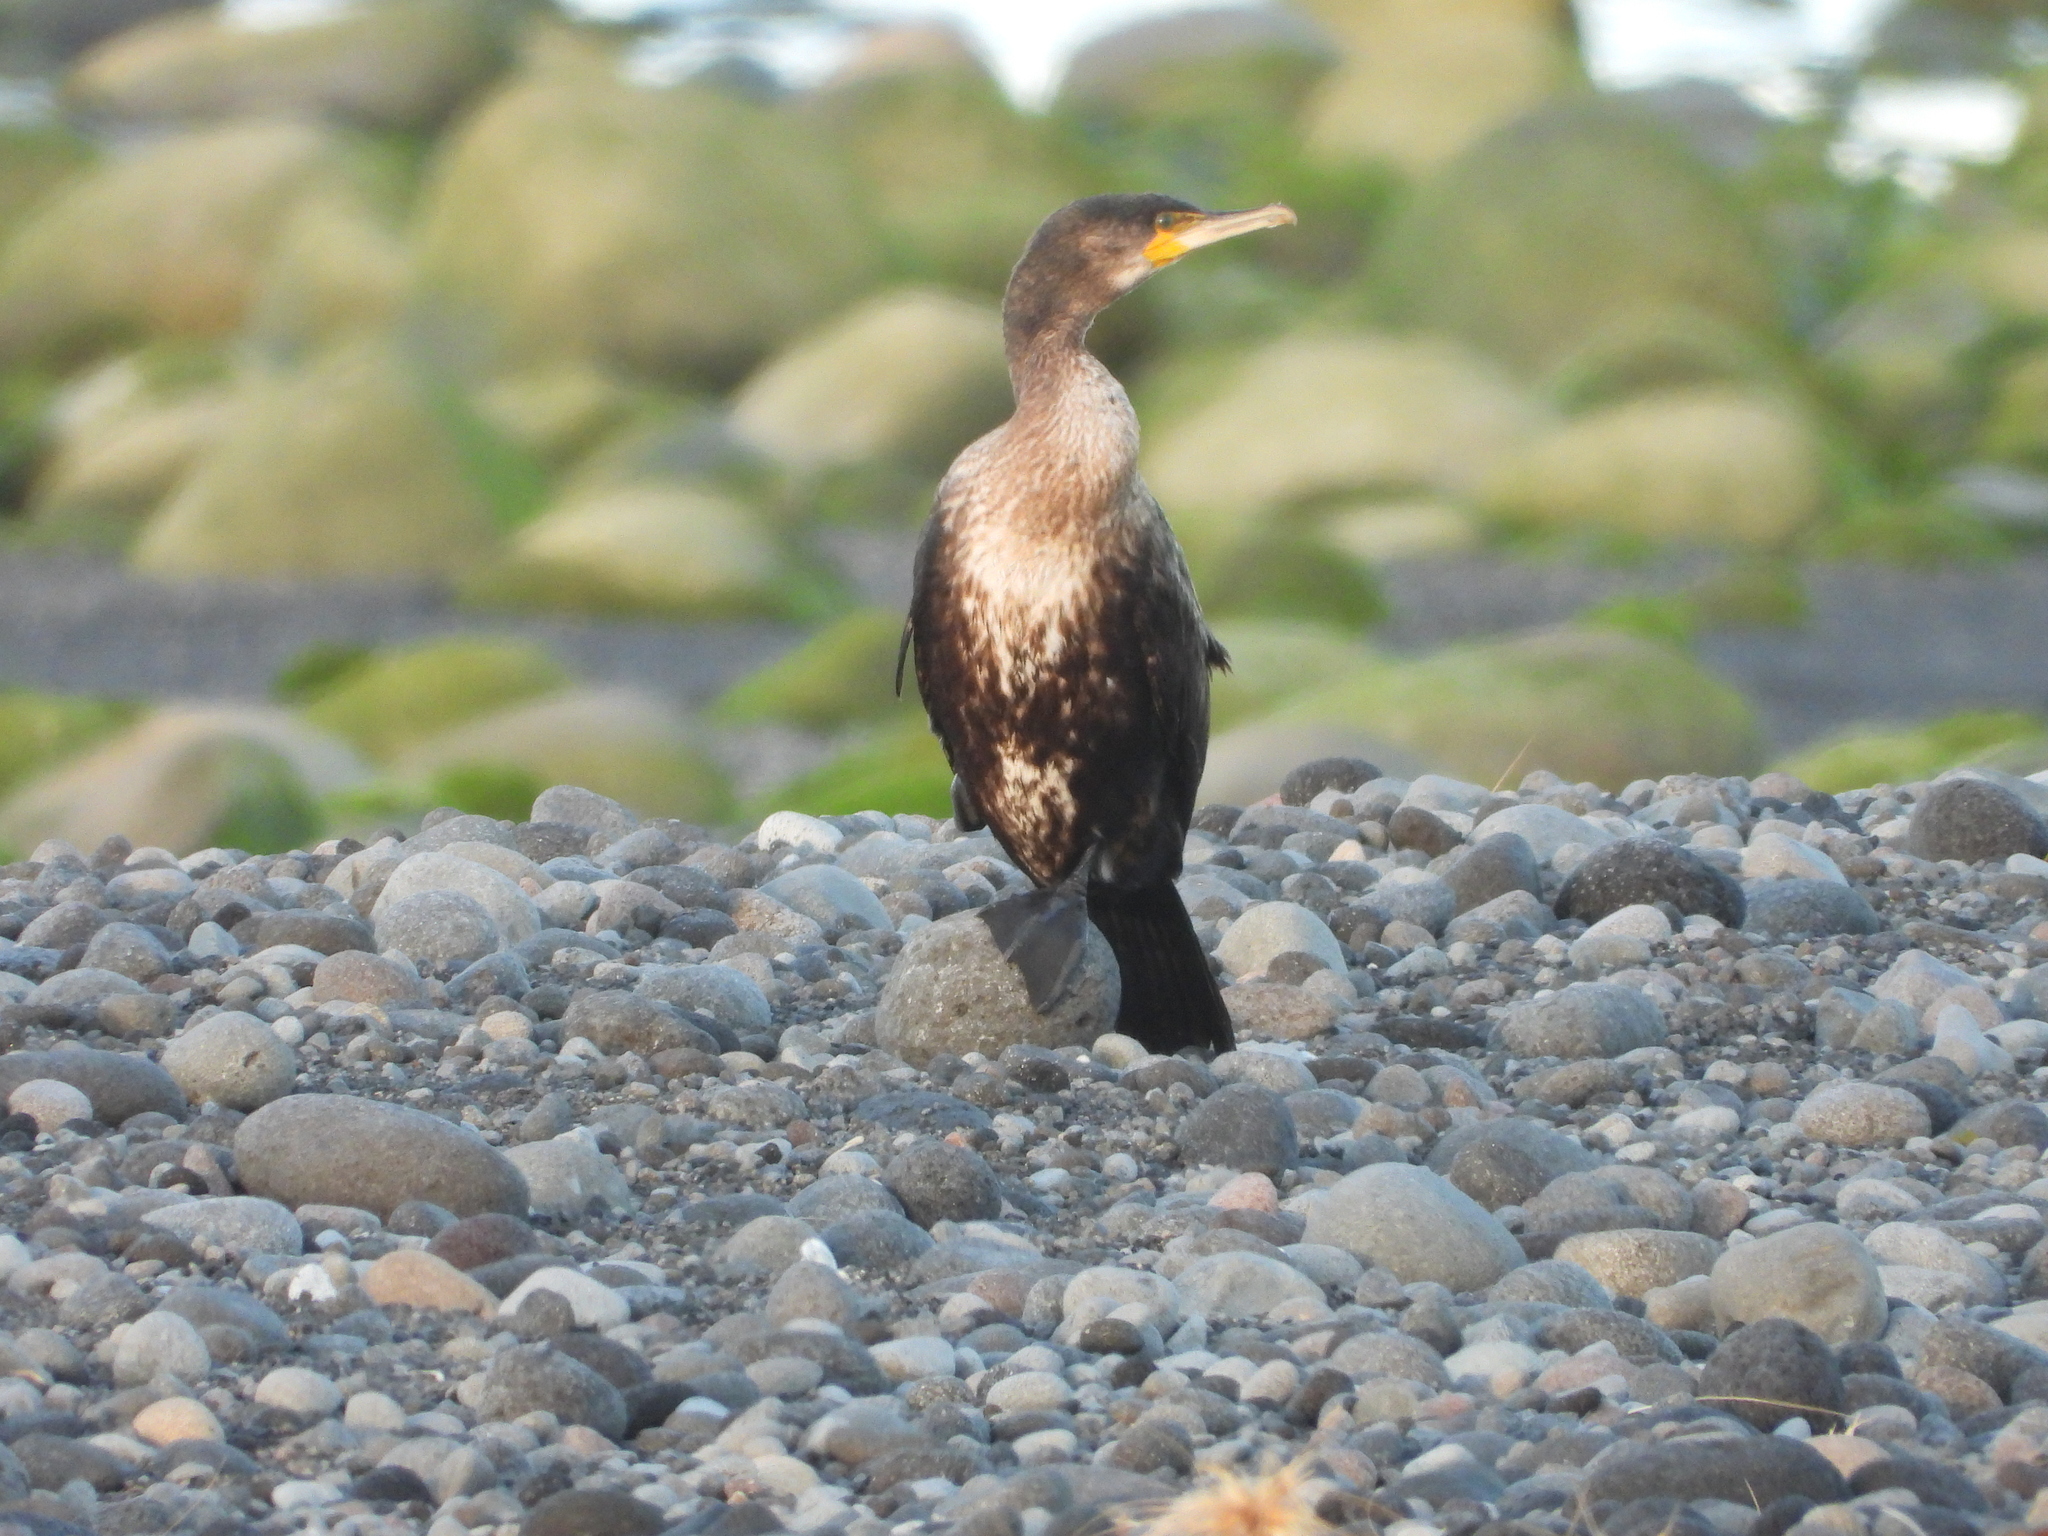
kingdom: Animalia
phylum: Chordata
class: Aves
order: Suliformes
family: Phalacrocoracidae
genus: Phalacrocorax
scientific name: Phalacrocorax carbo
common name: Great cormorant
